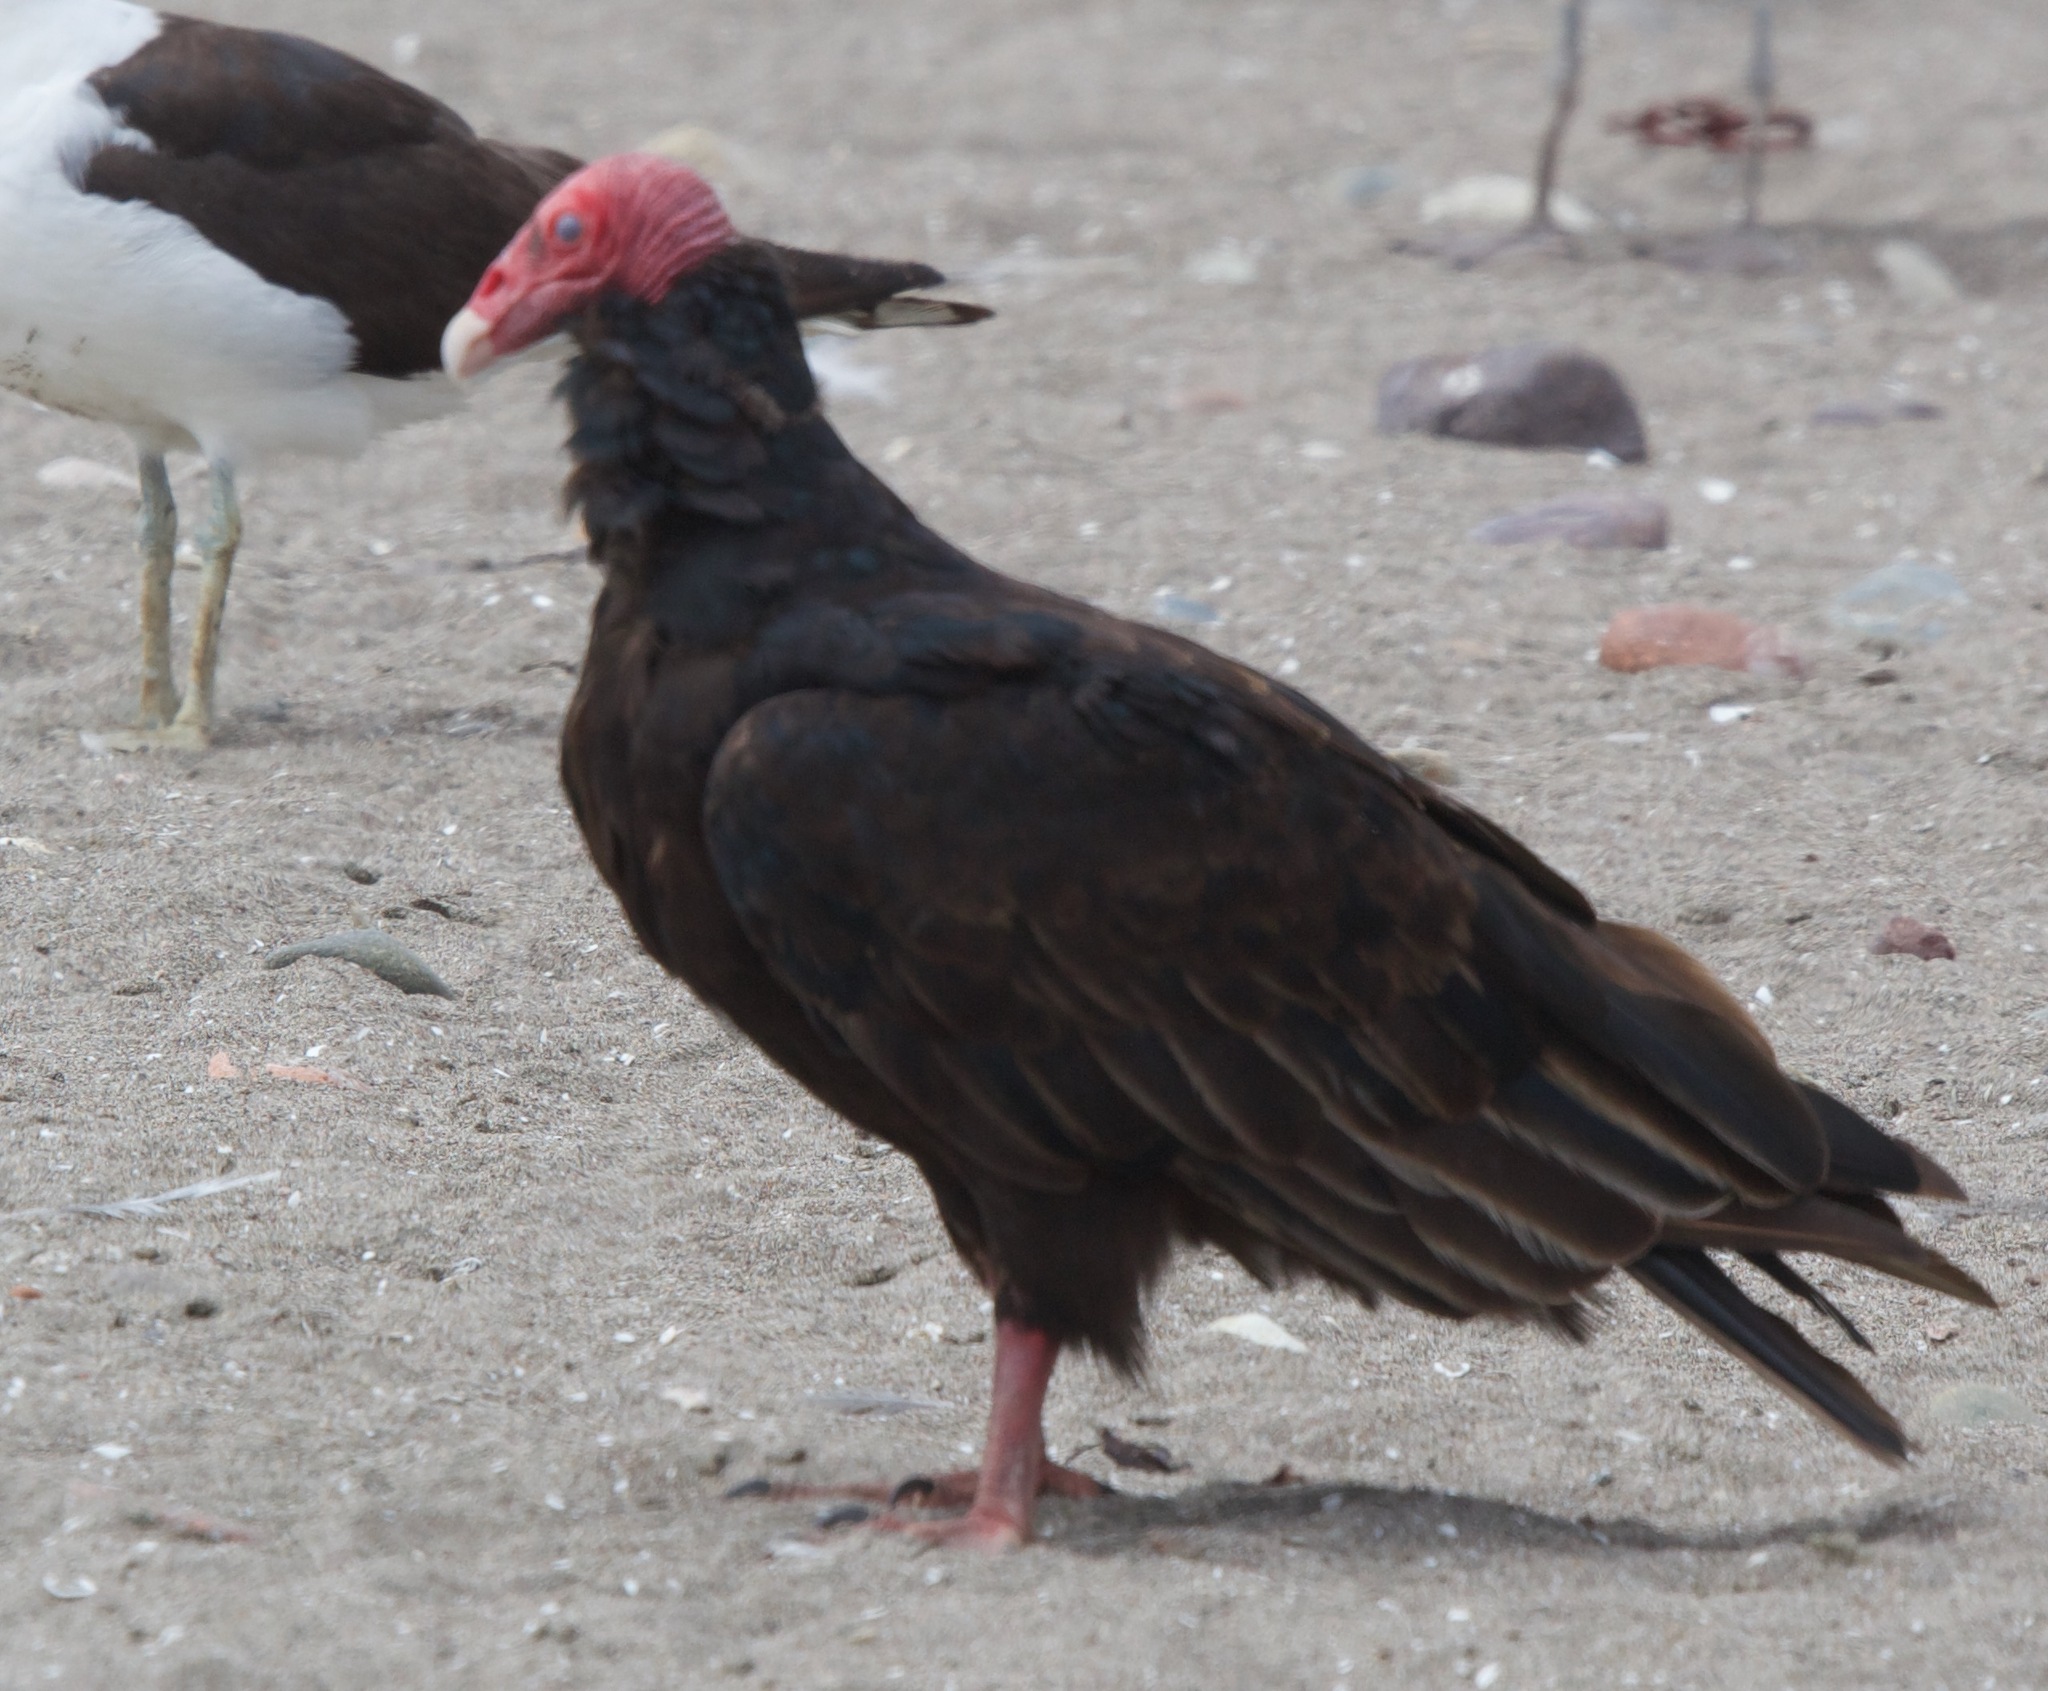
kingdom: Animalia
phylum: Chordata
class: Aves
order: Accipitriformes
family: Cathartidae
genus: Cathartes
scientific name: Cathartes aura
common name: Turkey vulture
